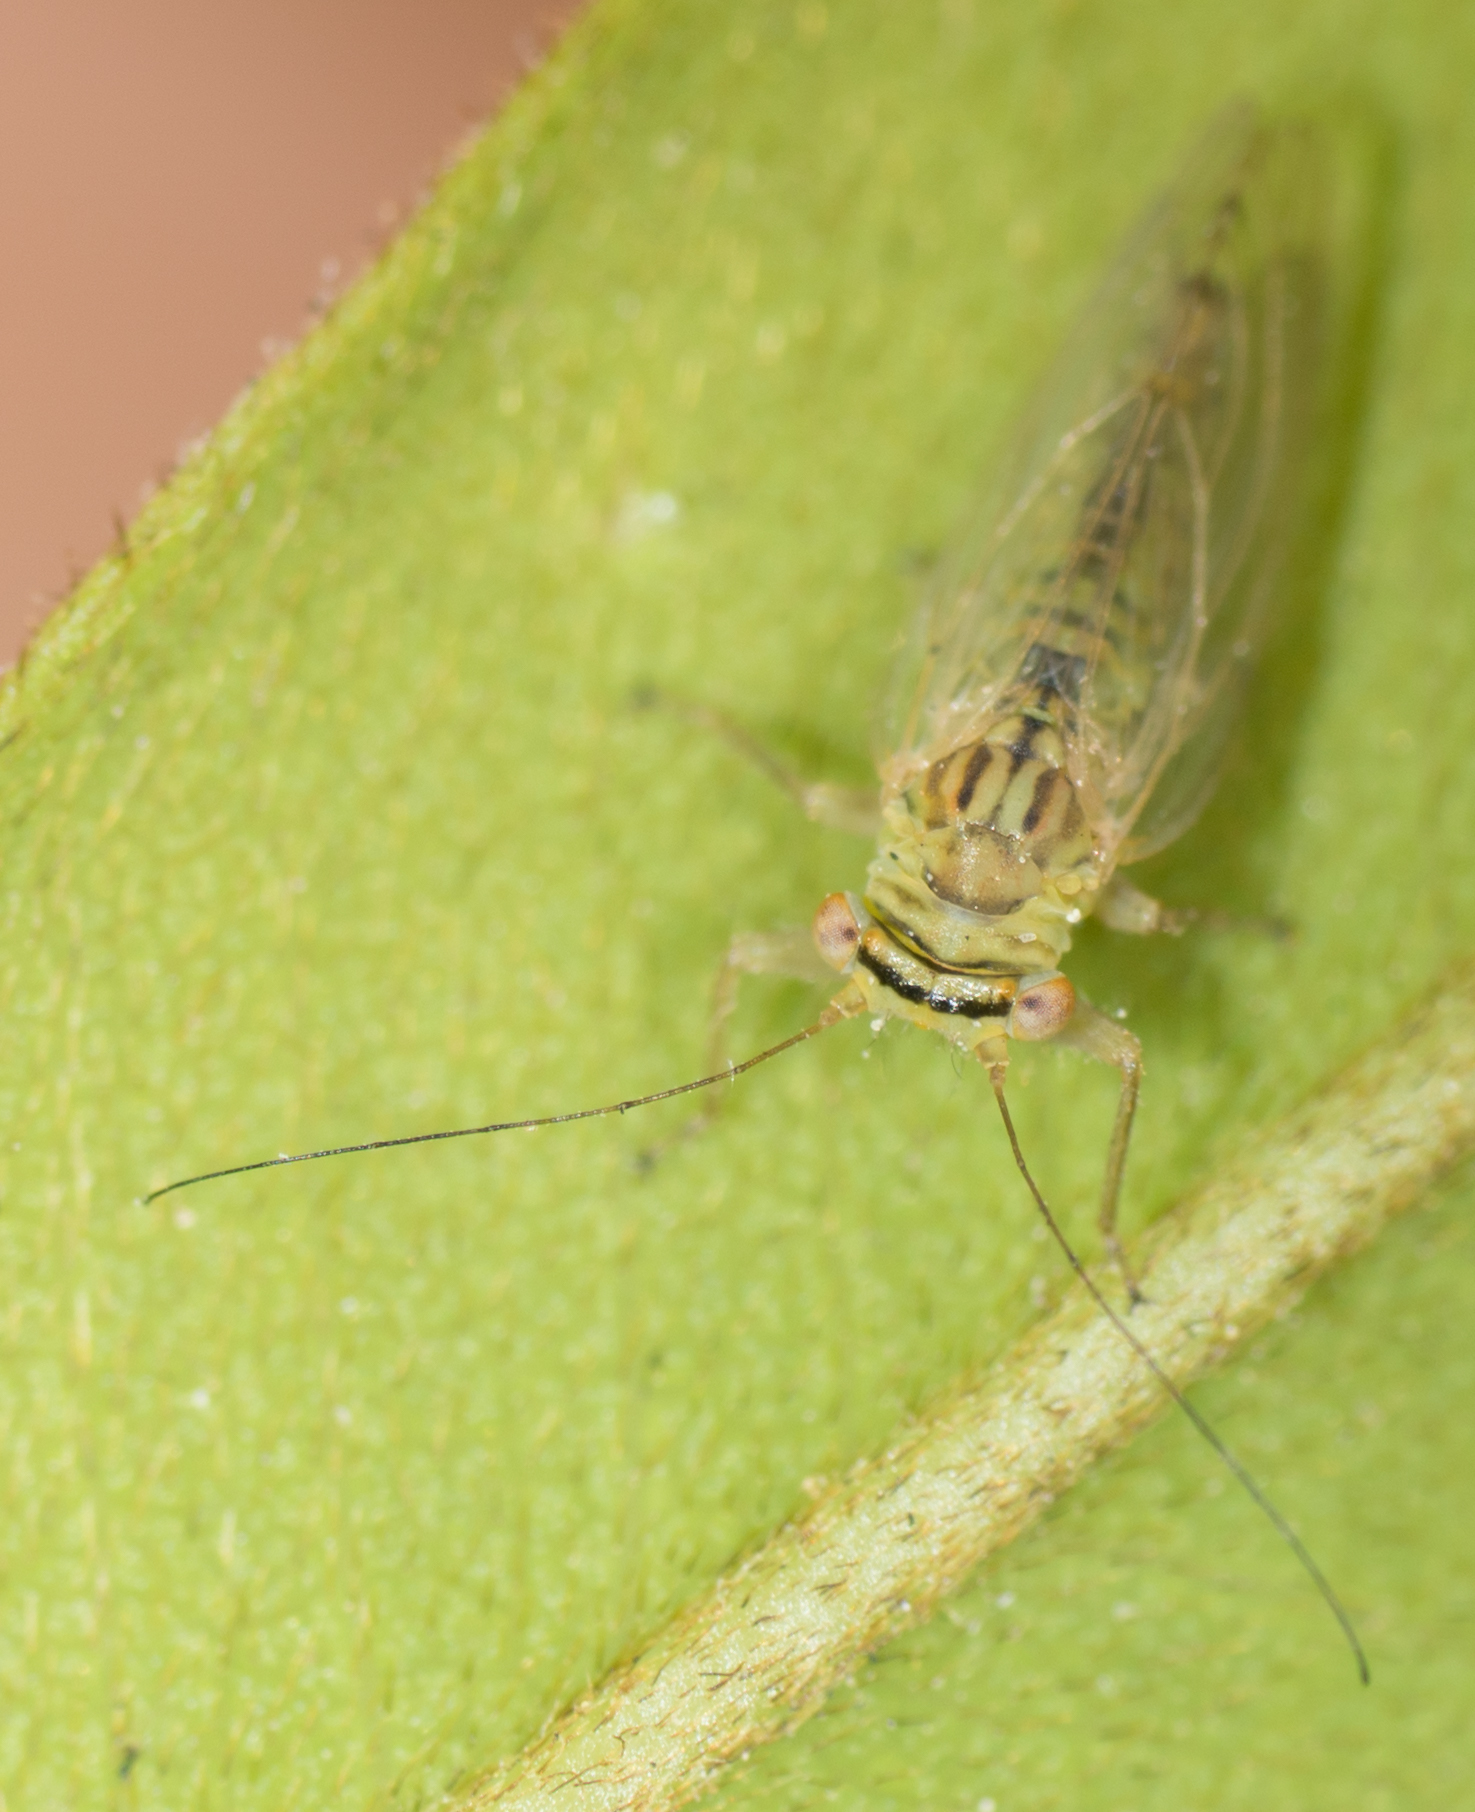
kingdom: Animalia
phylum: Arthropoda
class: Insecta
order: Hemiptera
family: Psyllidae
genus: Platycorypha
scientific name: Platycorypha nigrivirga
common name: Tipu psyllid
